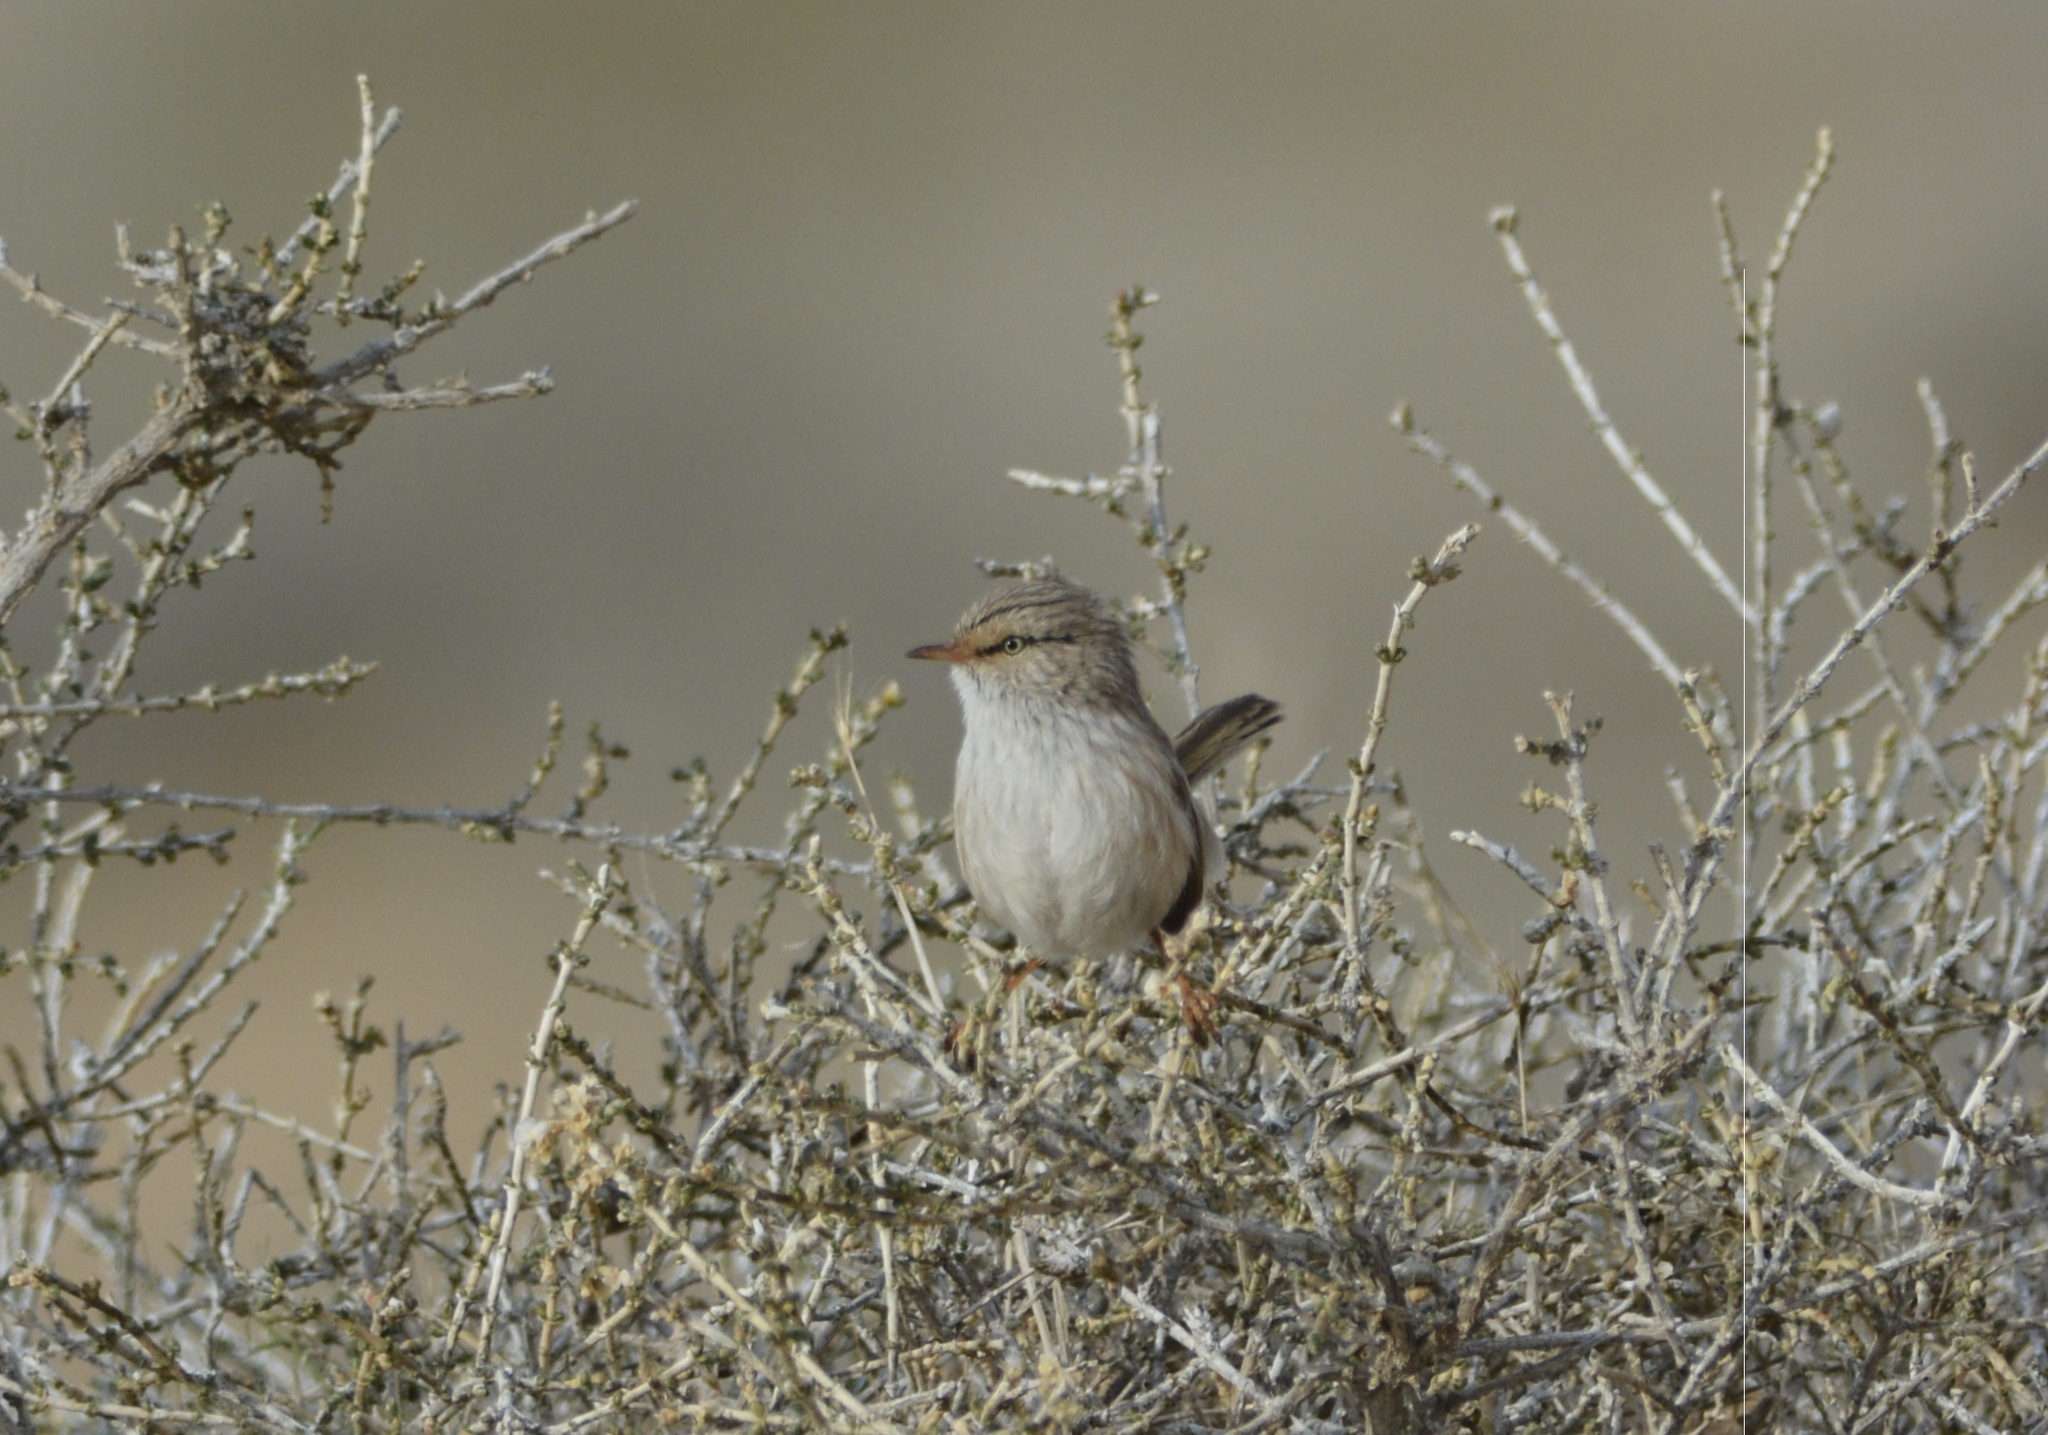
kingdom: Animalia
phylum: Chordata
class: Aves
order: Passeriformes
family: Scotocercidae
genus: Scotocerca
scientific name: Scotocerca inquieta
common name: Scrub warbler
